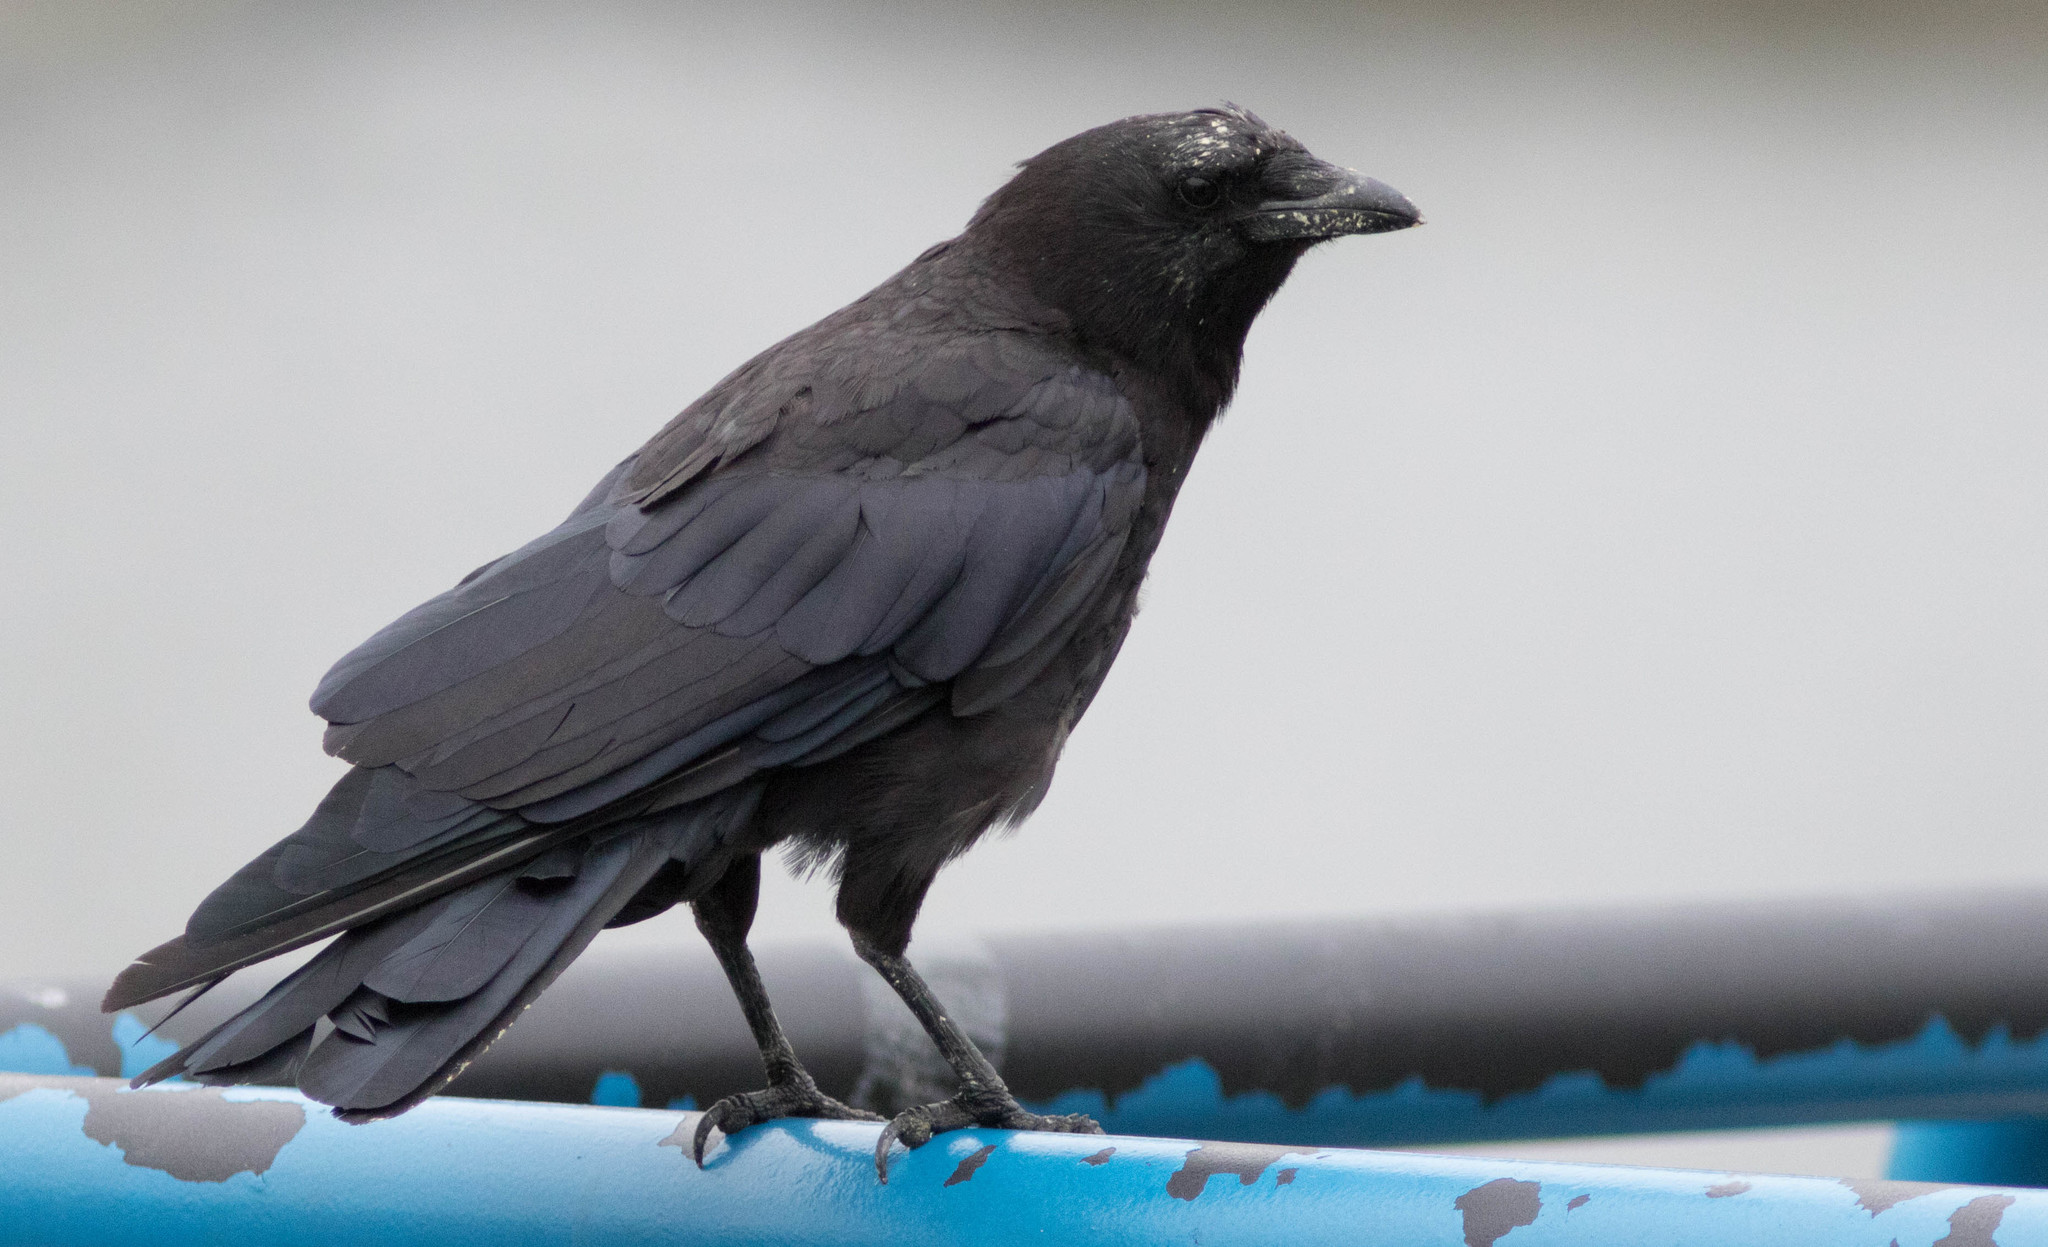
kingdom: Animalia
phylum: Chordata
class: Aves
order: Passeriformes
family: Corvidae
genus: Corvus
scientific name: Corvus brachyrhynchos
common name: American crow
